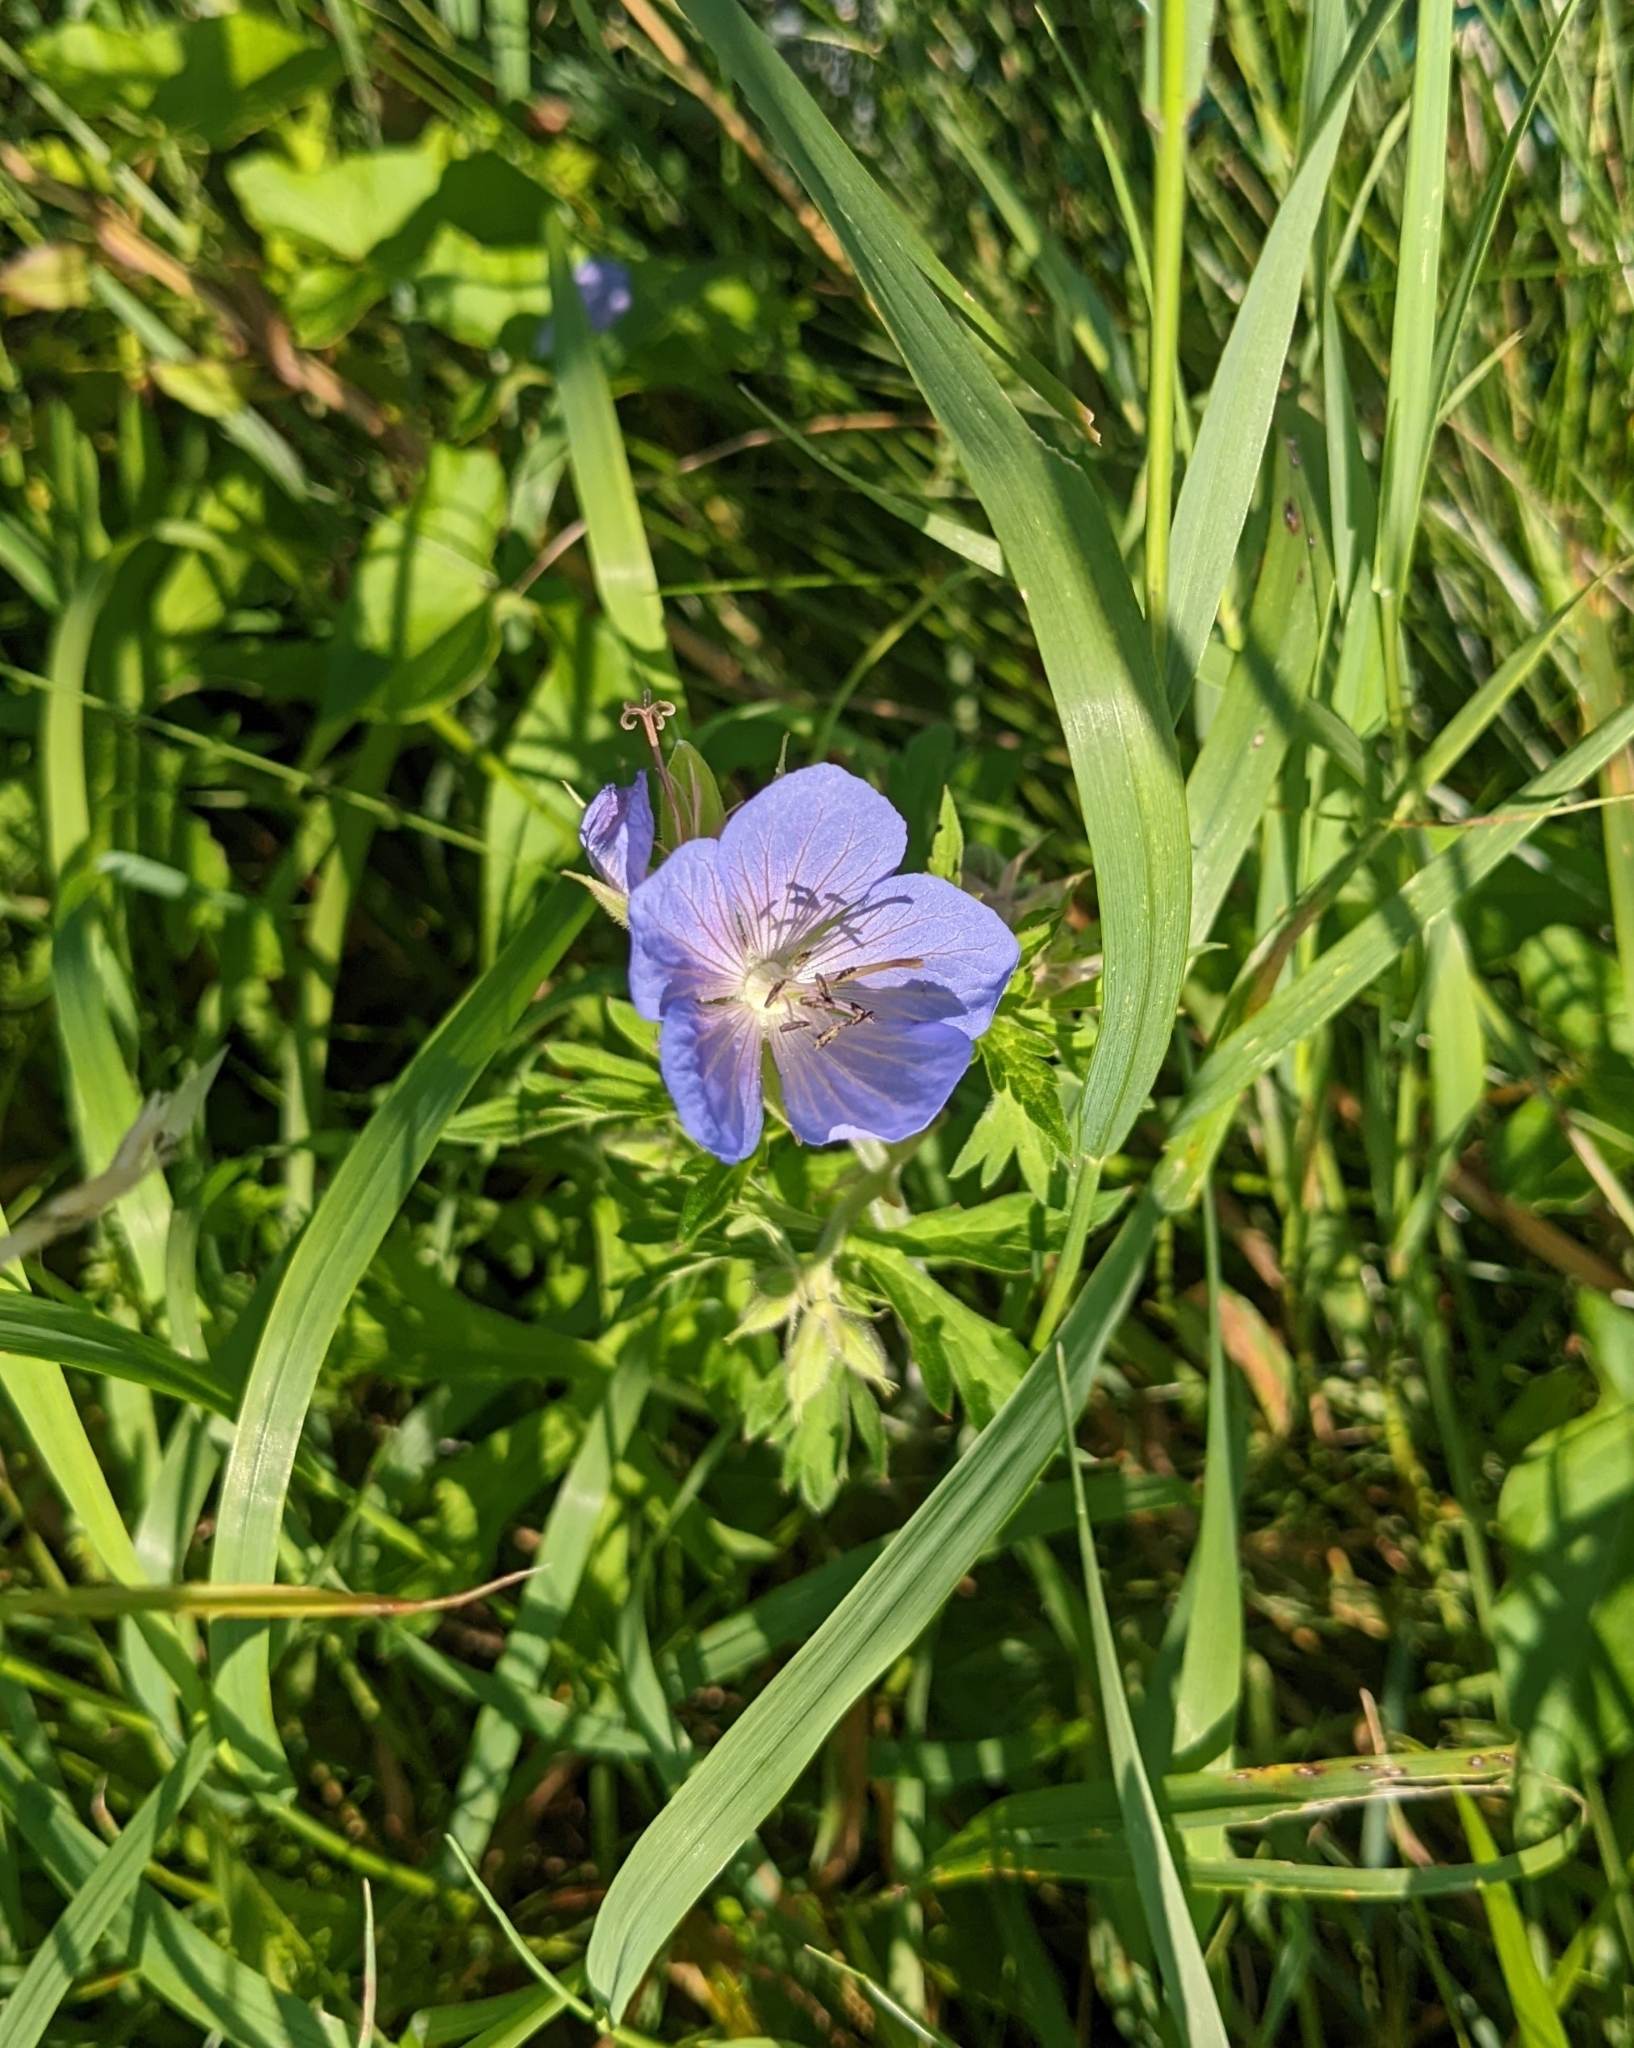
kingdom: Plantae
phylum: Tracheophyta
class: Magnoliopsida
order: Geraniales
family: Geraniaceae
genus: Geranium
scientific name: Geranium pratense
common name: Meadow crane's-bill
